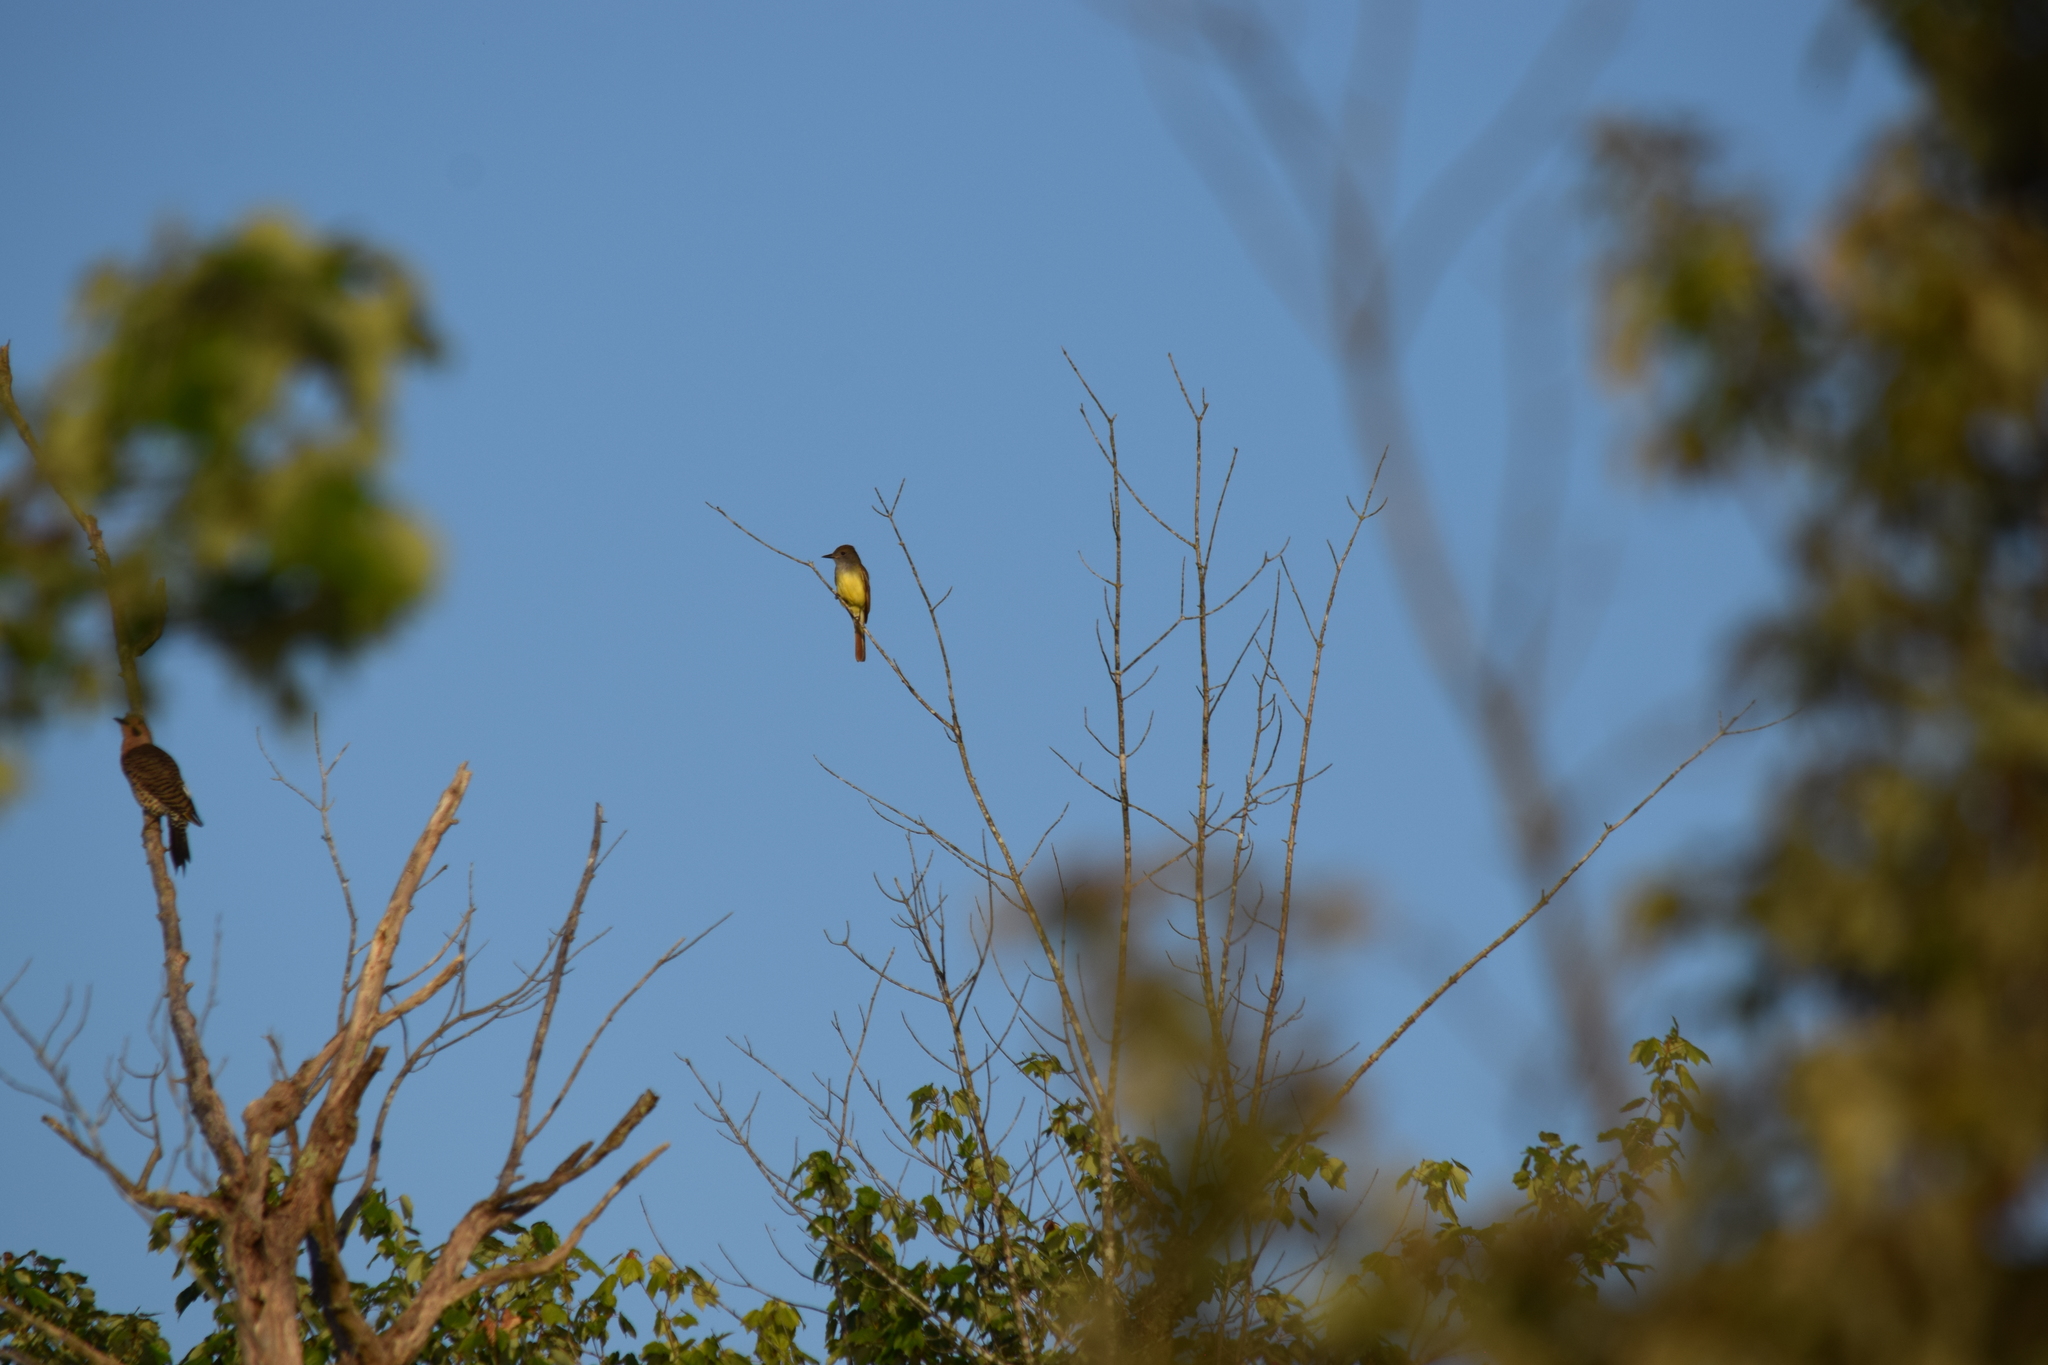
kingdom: Animalia
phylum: Chordata
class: Aves
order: Passeriformes
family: Tyrannidae
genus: Myiarchus
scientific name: Myiarchus crinitus
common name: Great crested flycatcher
